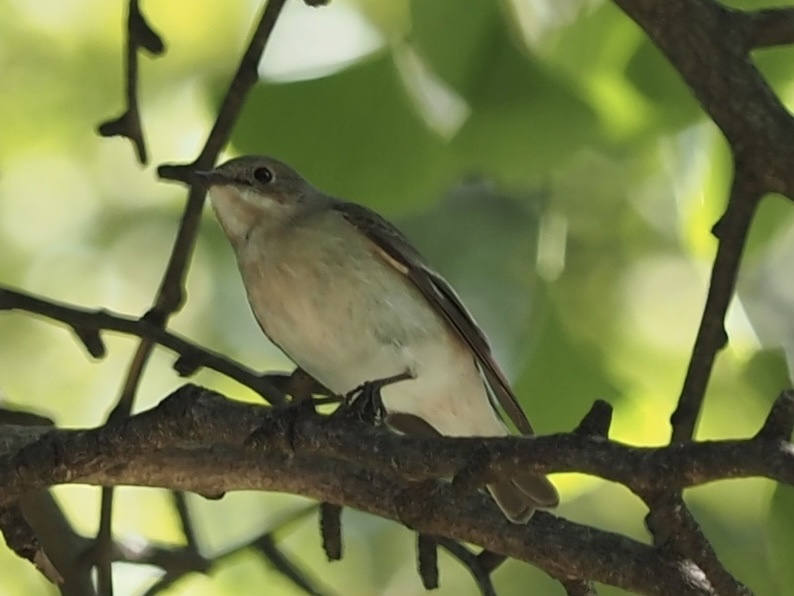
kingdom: Animalia
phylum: Chordata
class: Aves
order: Passeriformes
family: Muscicapidae
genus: Ficedula
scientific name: Ficedula hypoleuca
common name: European pied flycatcher
